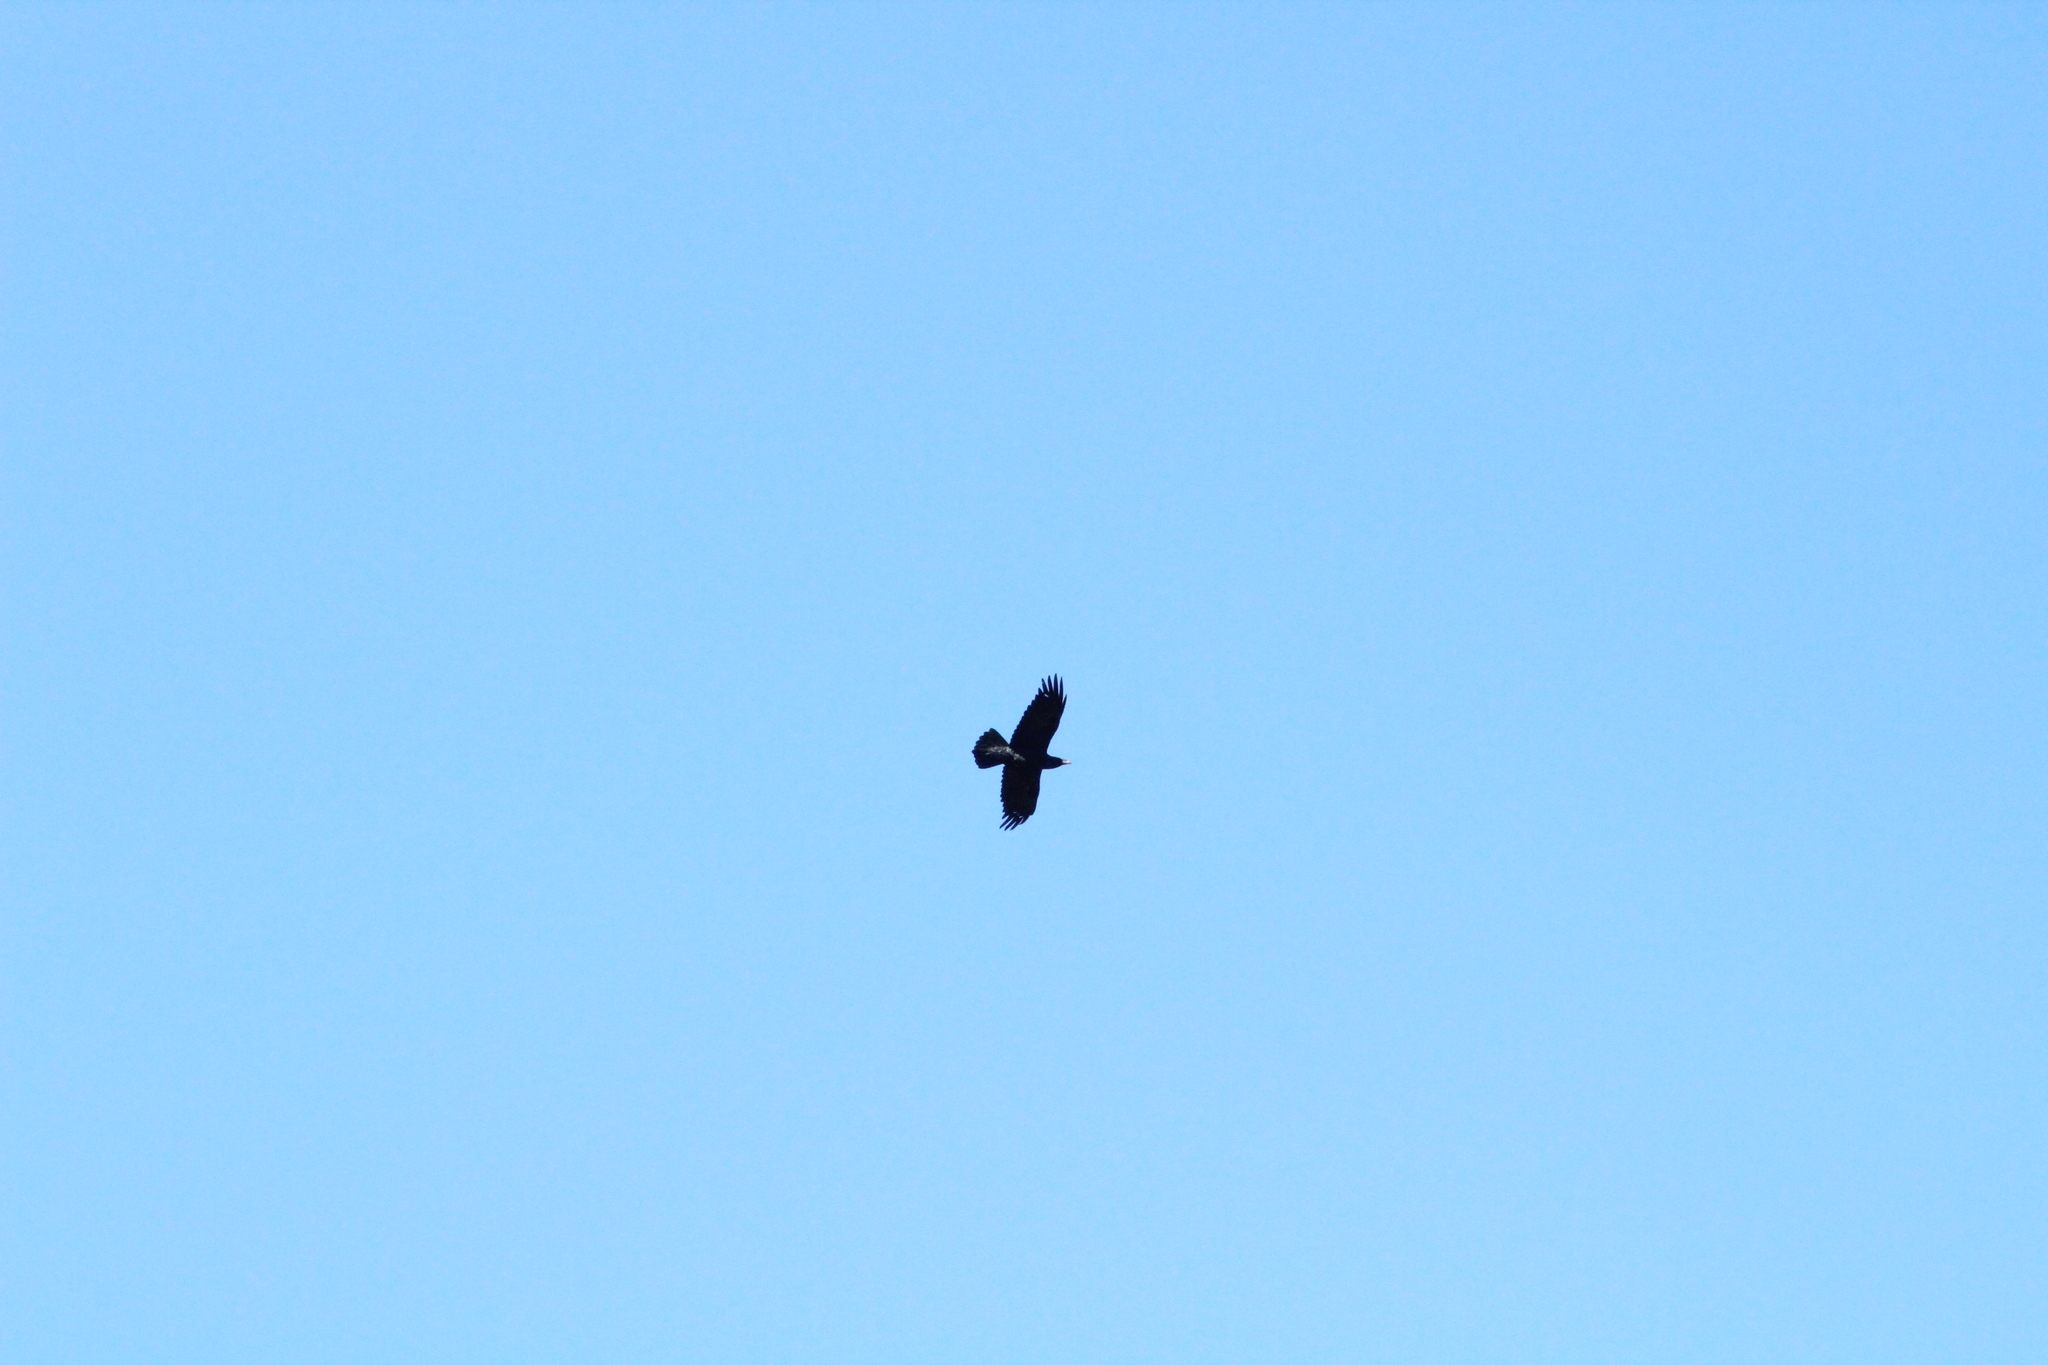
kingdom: Animalia
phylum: Chordata
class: Aves
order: Passeriformes
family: Corvidae
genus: Corvus
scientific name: Corvus corax
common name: Common raven
